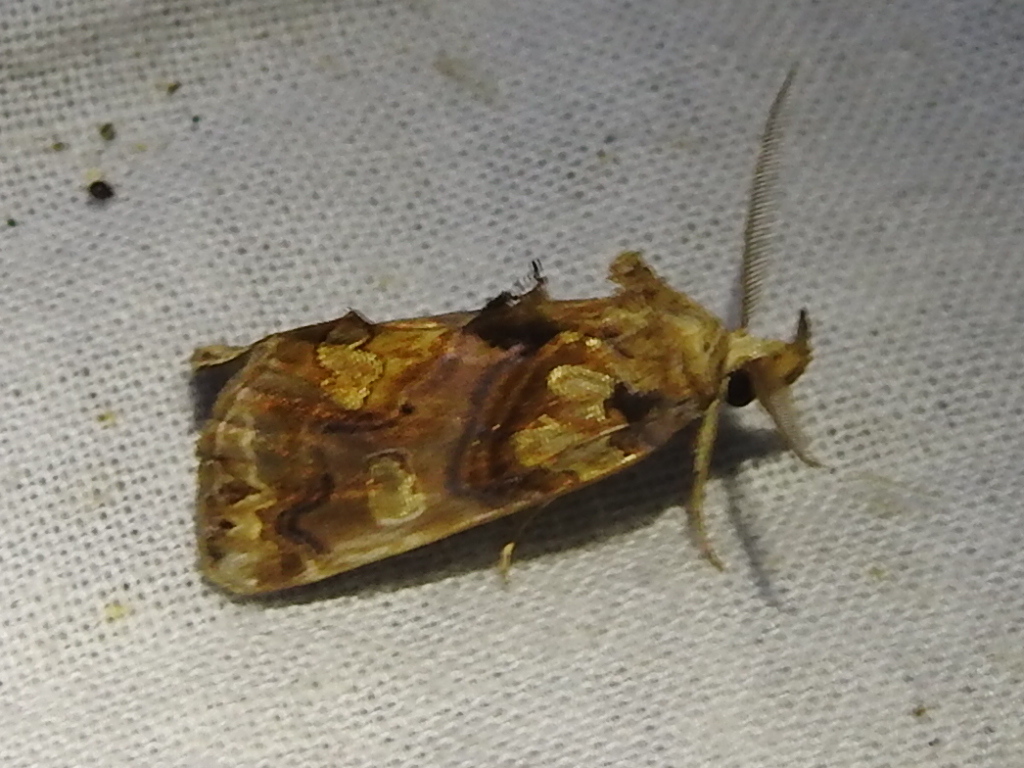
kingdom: Animalia
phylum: Arthropoda
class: Insecta
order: Lepidoptera
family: Erebidae
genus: Plusiodonta
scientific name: Plusiodonta compressipalpis
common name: Moonseed moth
